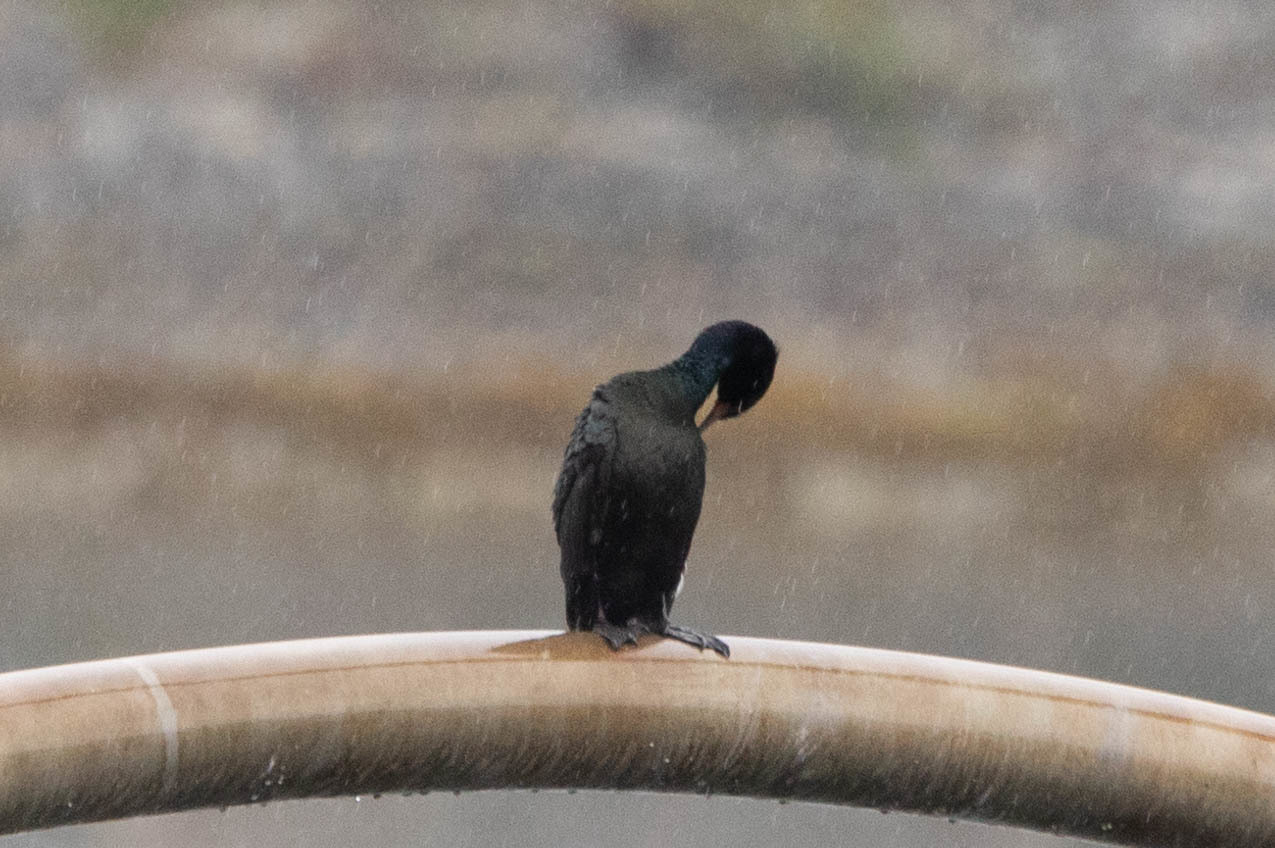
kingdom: Animalia
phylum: Chordata
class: Aves
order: Suliformes
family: Phalacrocoracidae
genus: Phalacrocorax
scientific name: Phalacrocorax pelagicus
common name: Pelagic cormorant
